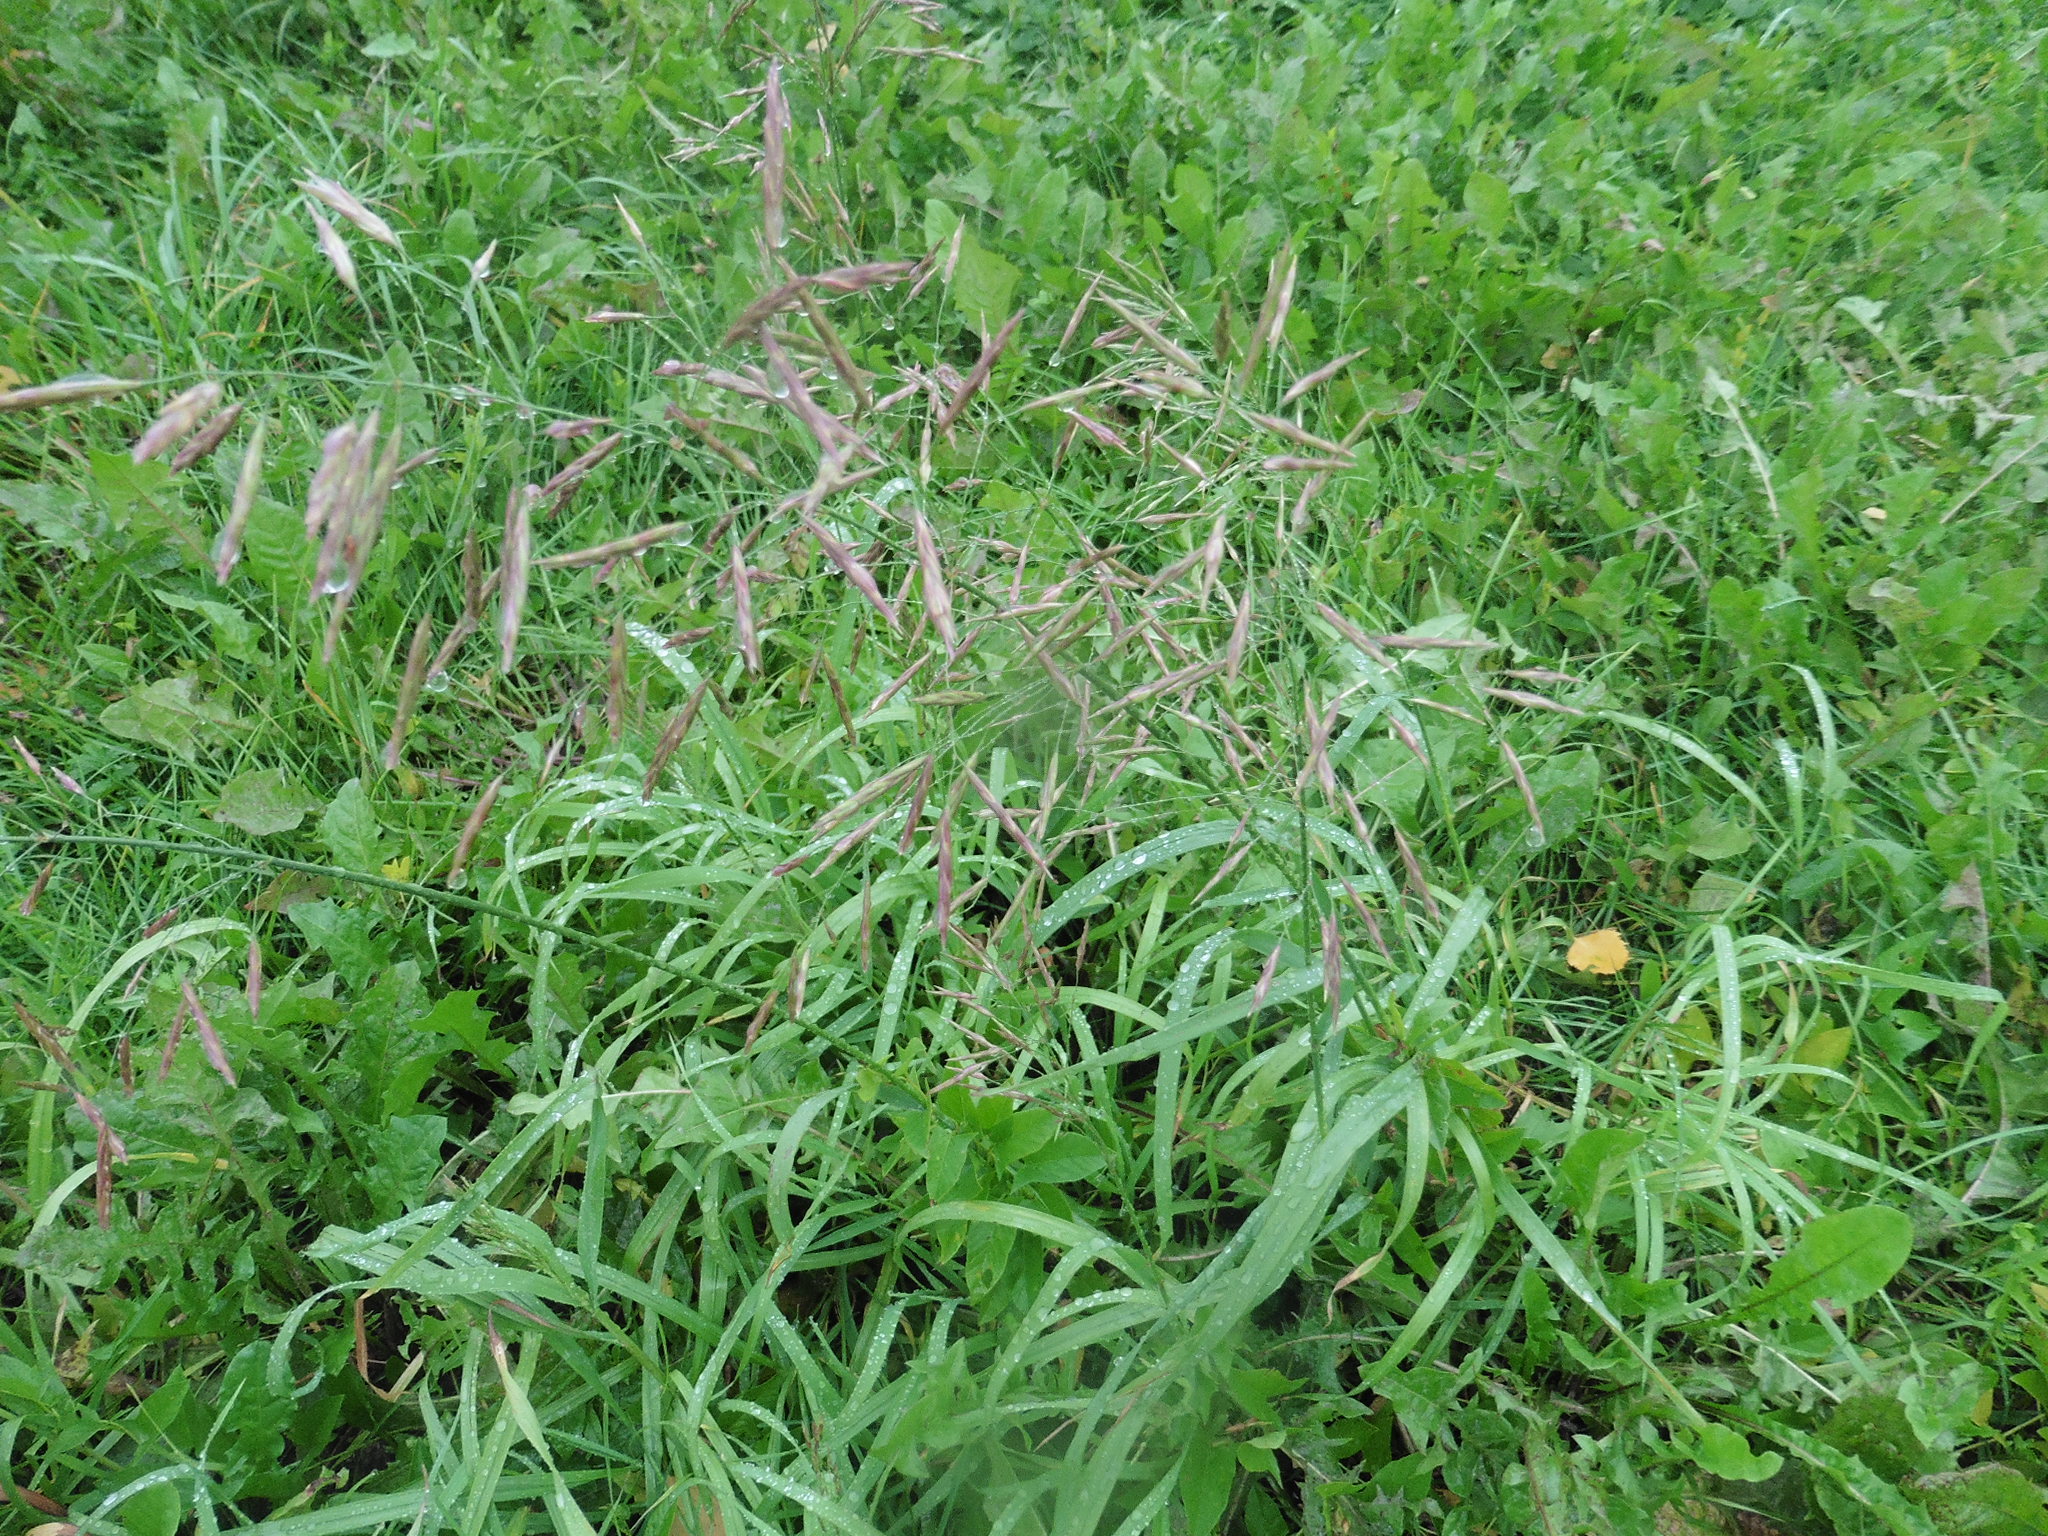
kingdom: Plantae
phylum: Tracheophyta
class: Liliopsida
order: Poales
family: Poaceae
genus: Bromus
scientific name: Bromus inermis
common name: Smooth brome
